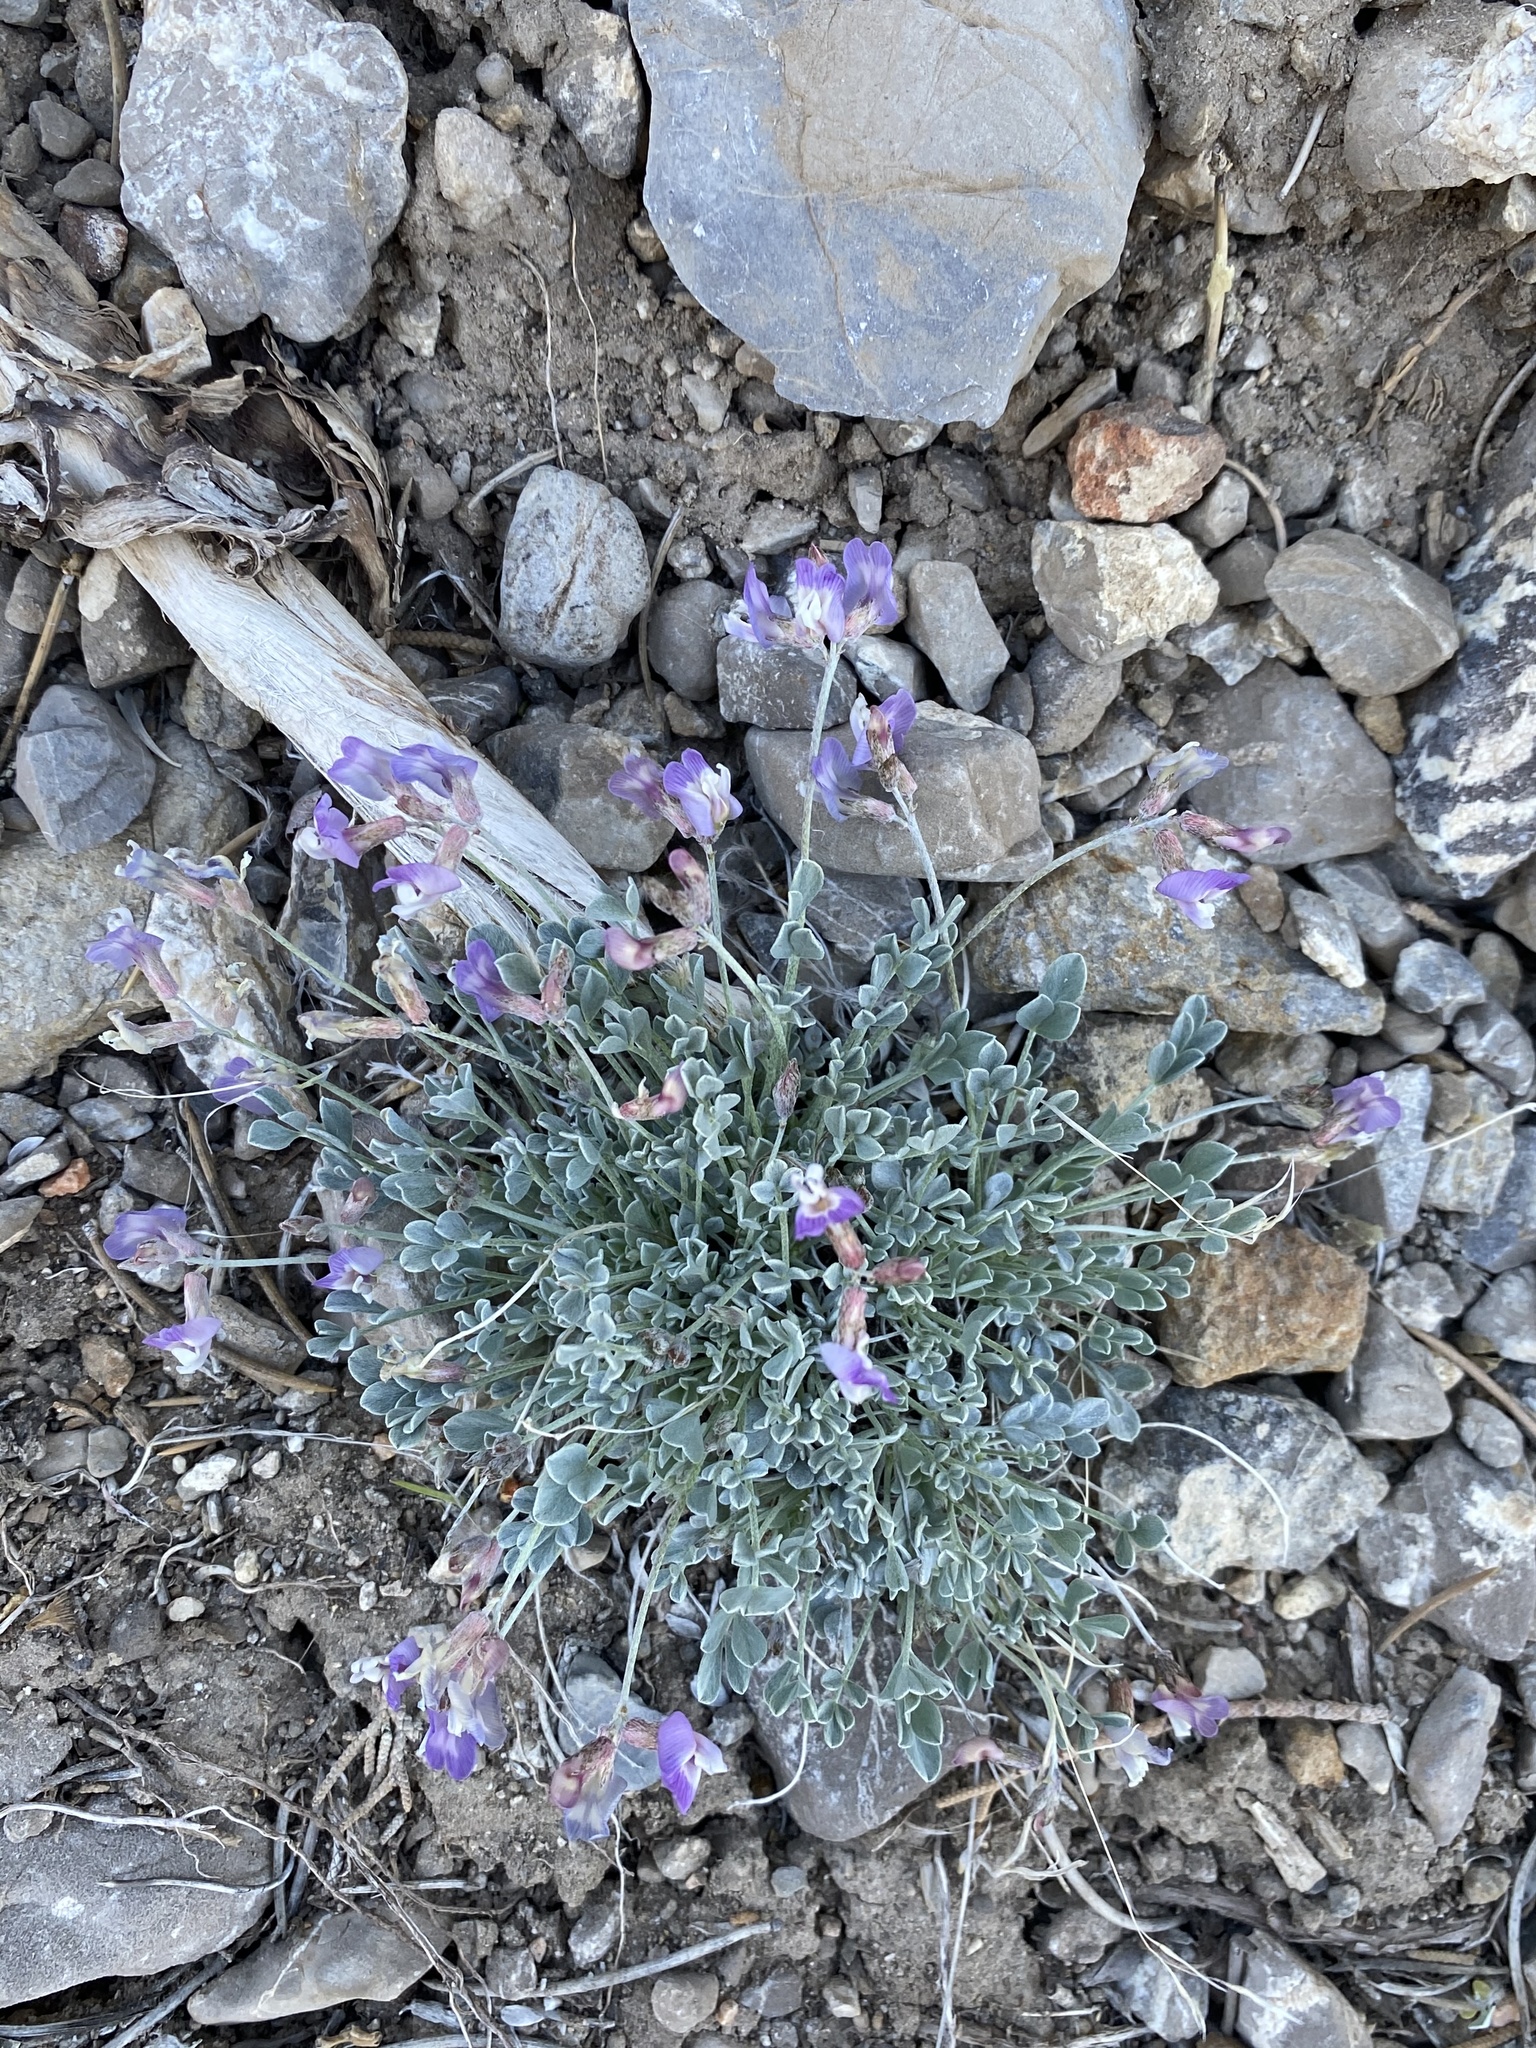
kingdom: Plantae
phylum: Tracheophyta
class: Magnoliopsida
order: Fabales
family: Fabaceae
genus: Astragalus
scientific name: Astragalus calycosus
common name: King's milkvetch
